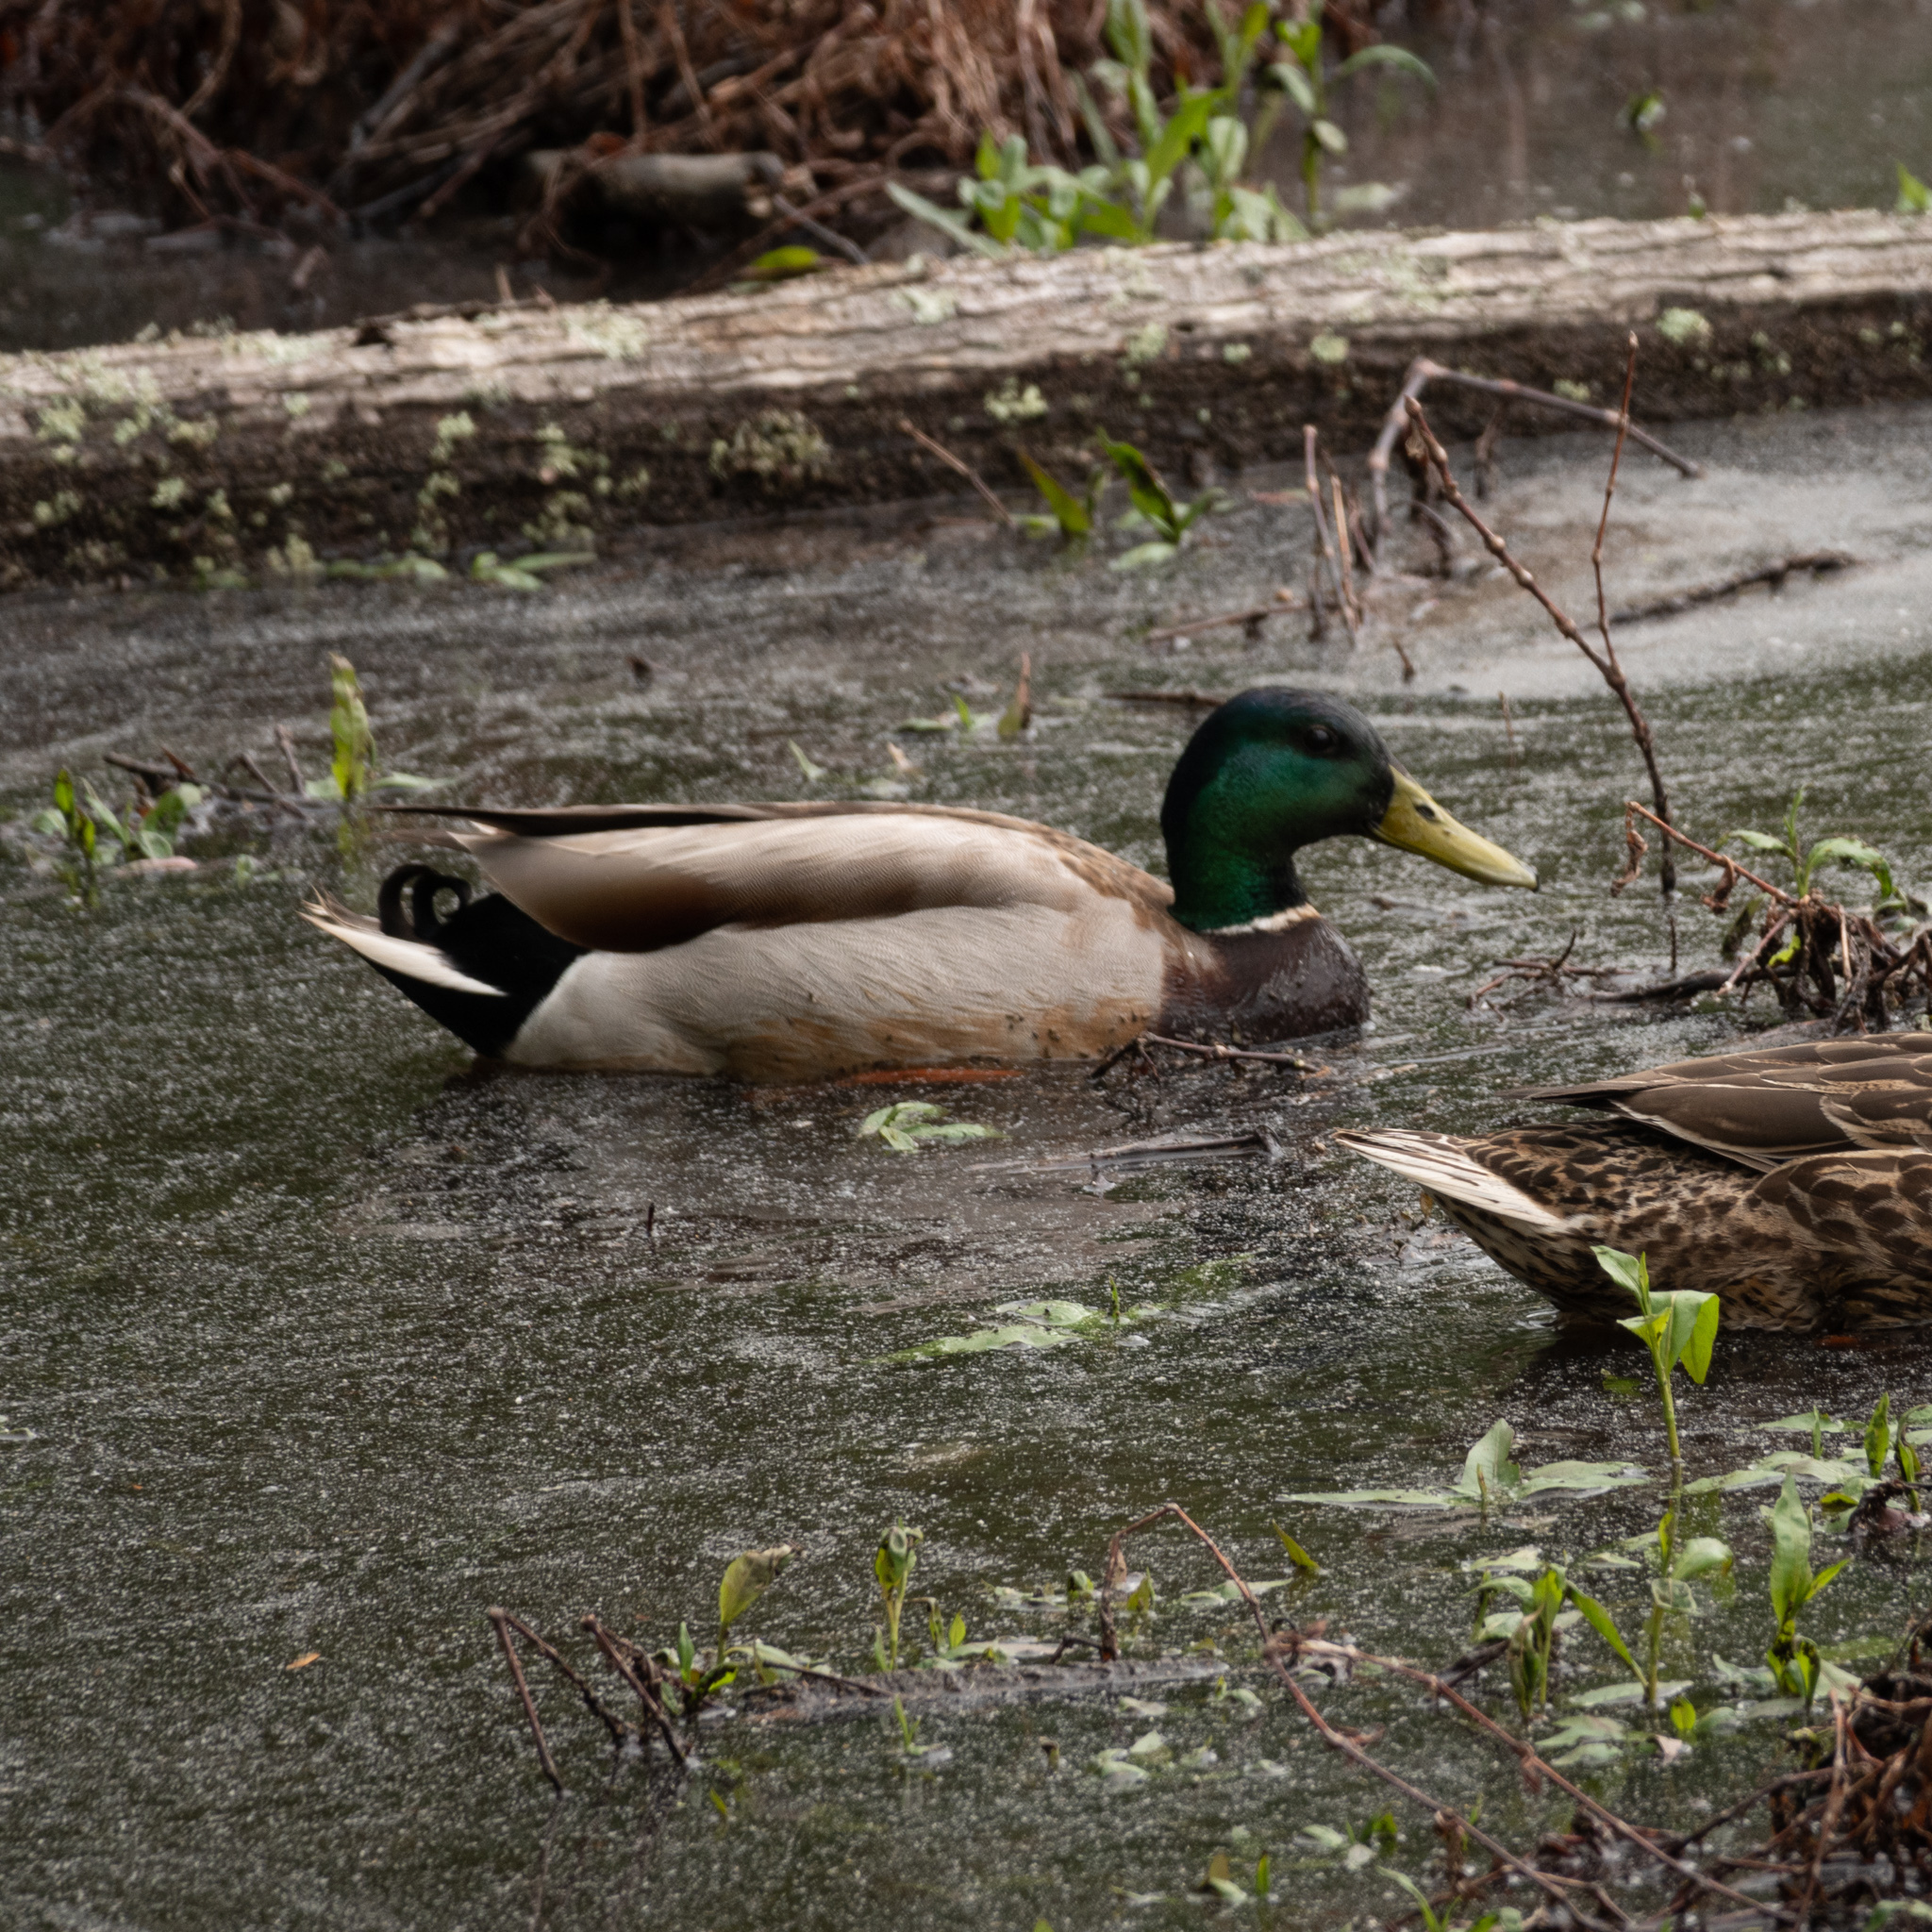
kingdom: Animalia
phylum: Chordata
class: Aves
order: Anseriformes
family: Anatidae
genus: Anas
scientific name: Anas platyrhynchos
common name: Mallard
